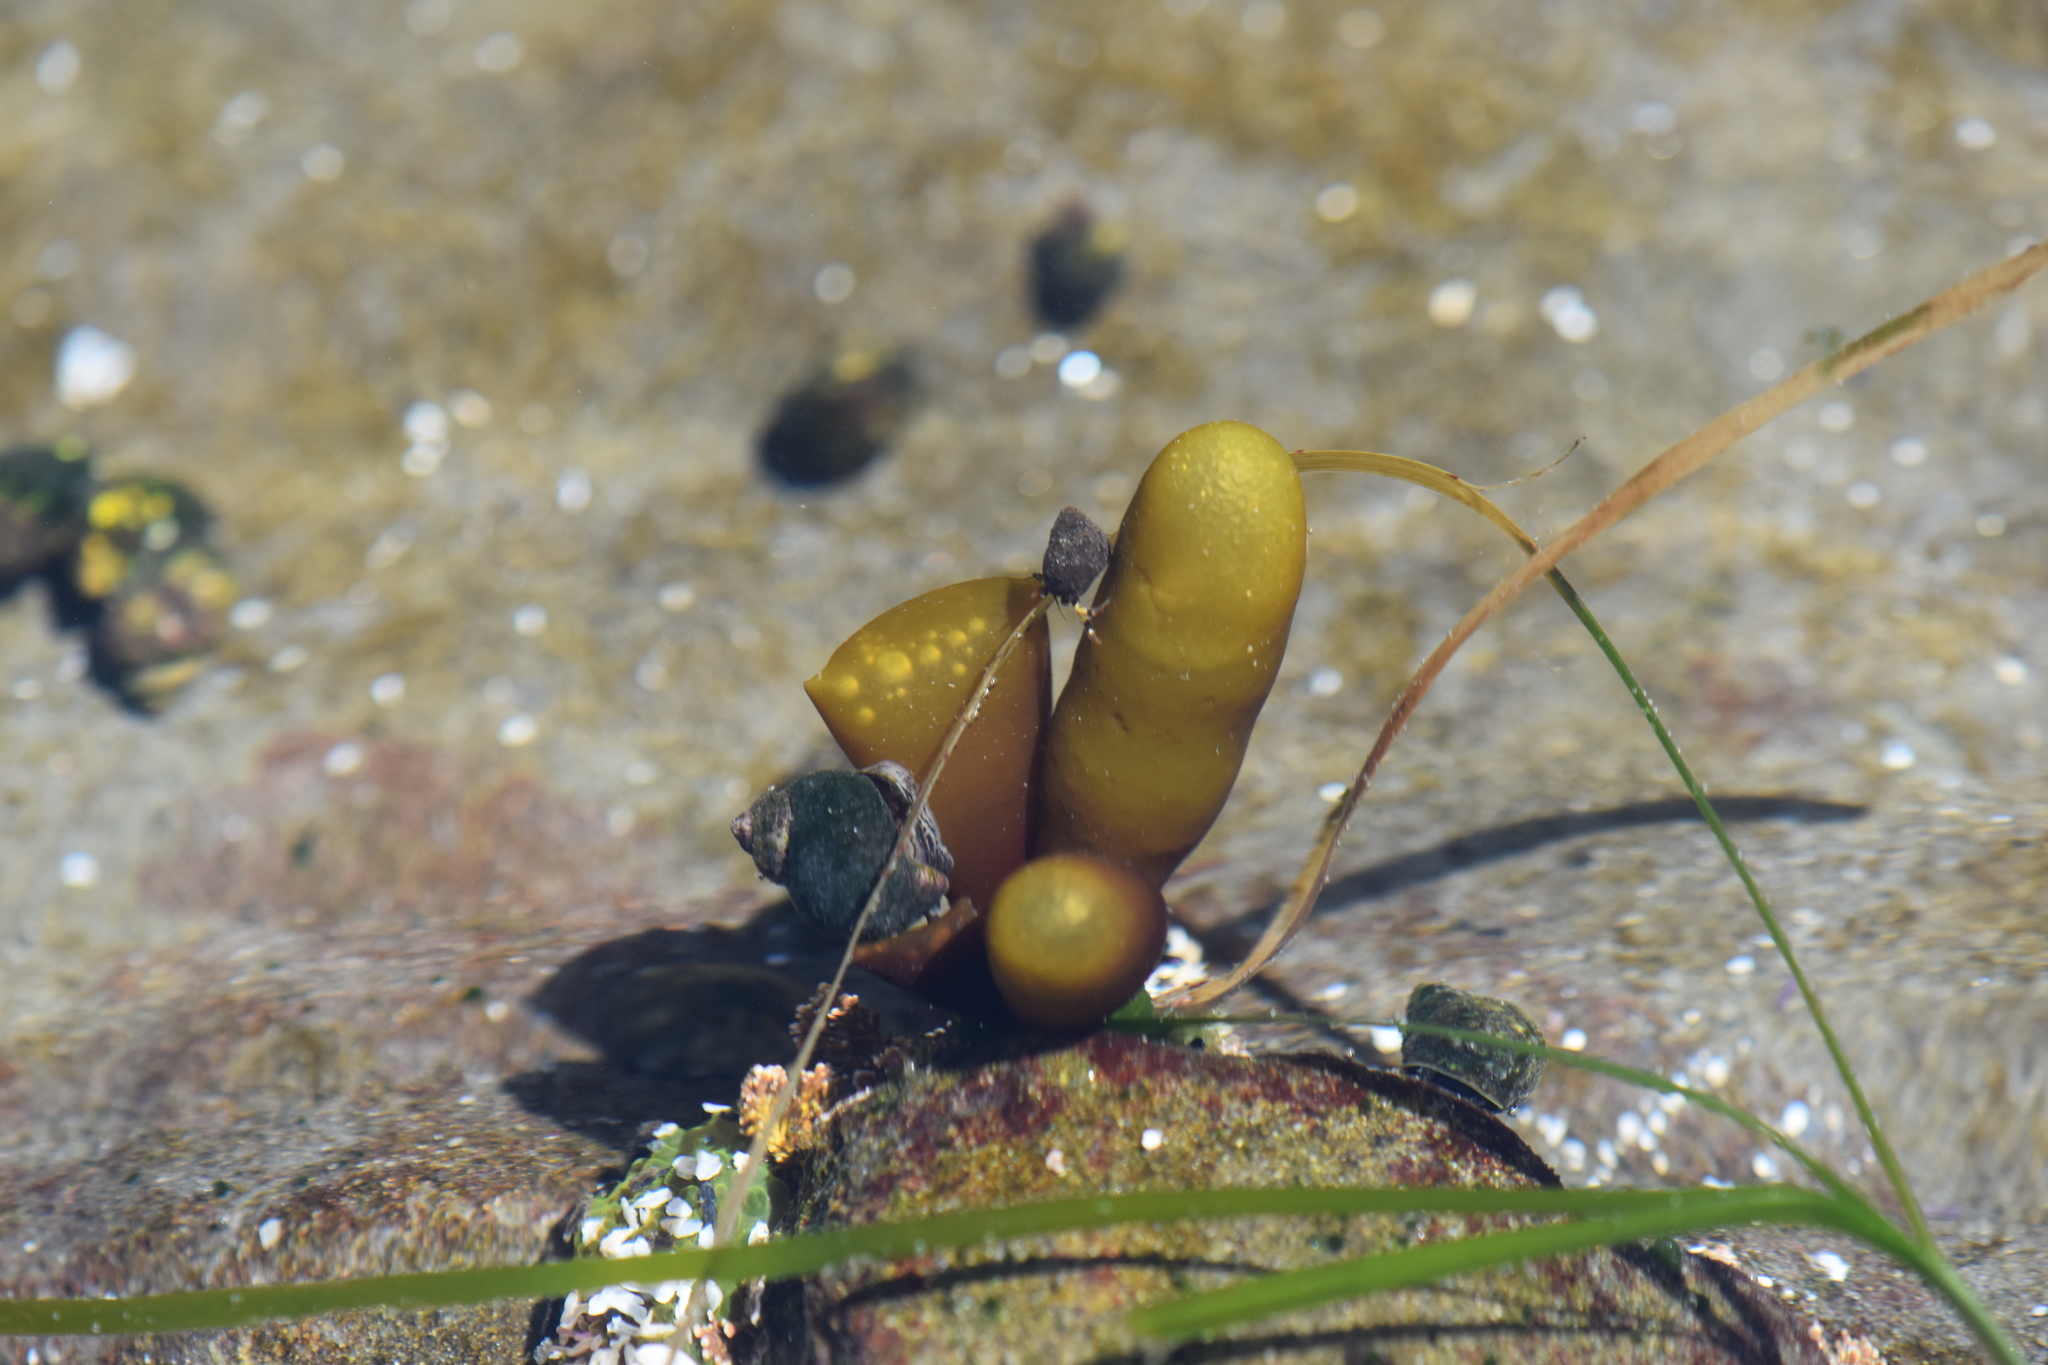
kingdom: Plantae
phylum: Rhodophyta
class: Florideophyceae
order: Palmariales
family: Palmariaceae
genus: Halosaccion
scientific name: Halosaccion glandiforme
